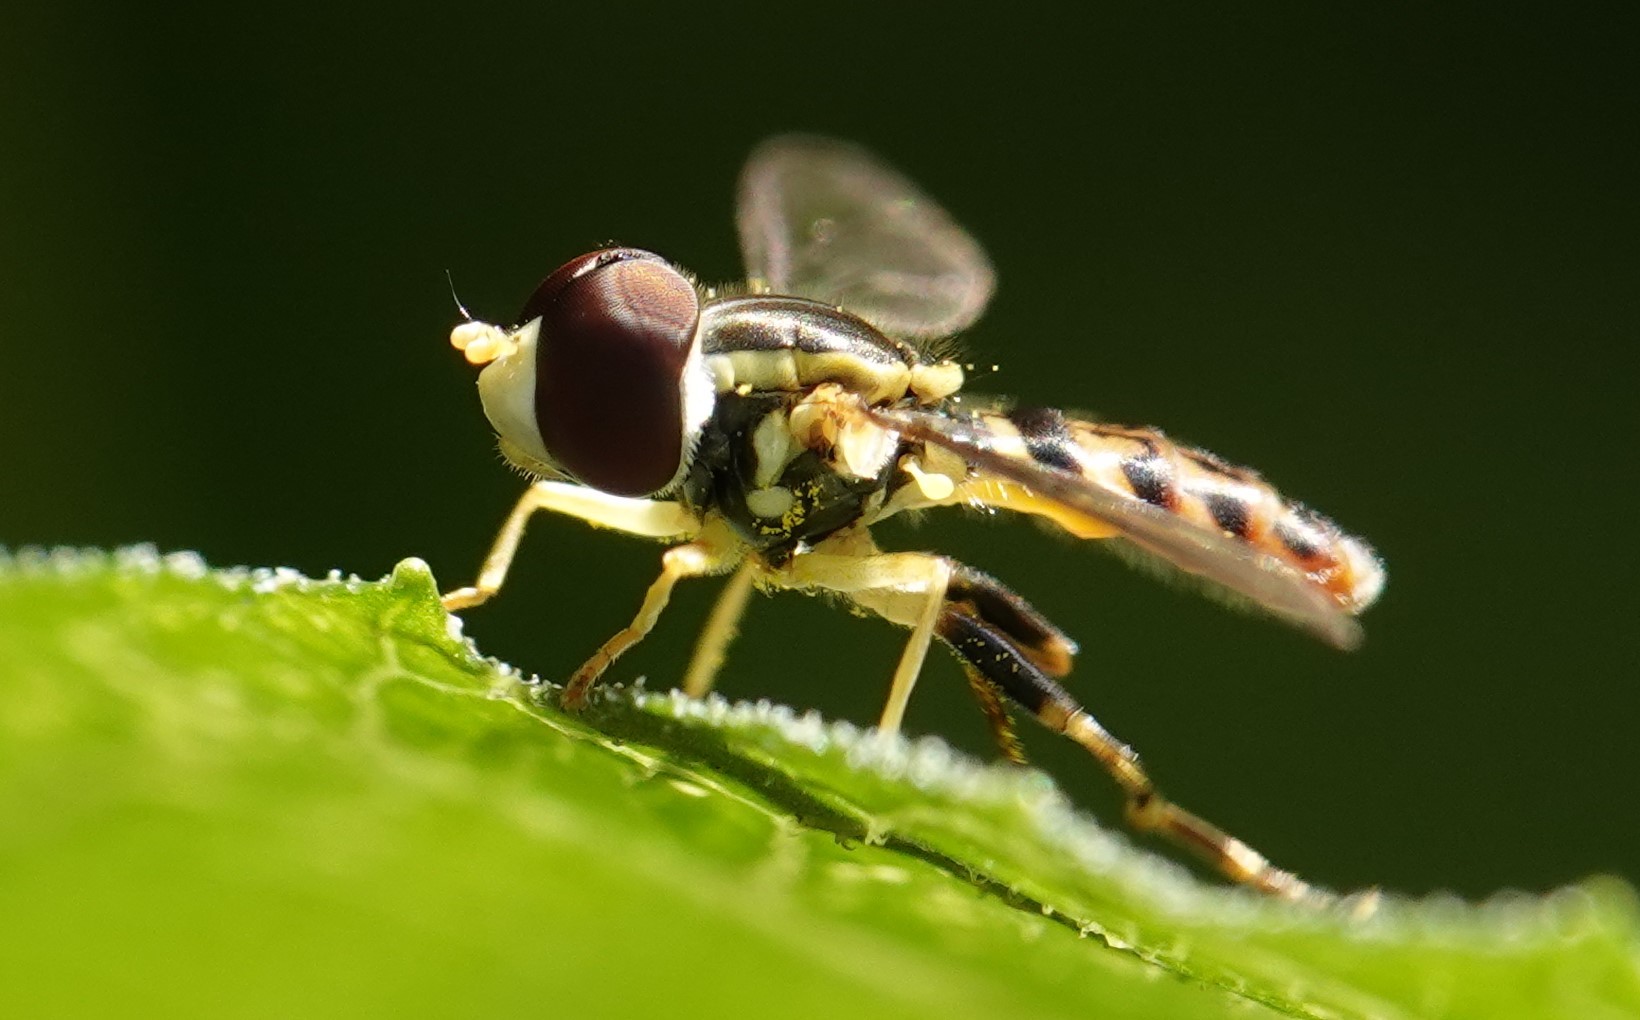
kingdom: Animalia
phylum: Arthropoda
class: Insecta
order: Diptera
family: Syrphidae
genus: Toxomerus
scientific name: Toxomerus geminatus
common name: Eastern calligrapher
